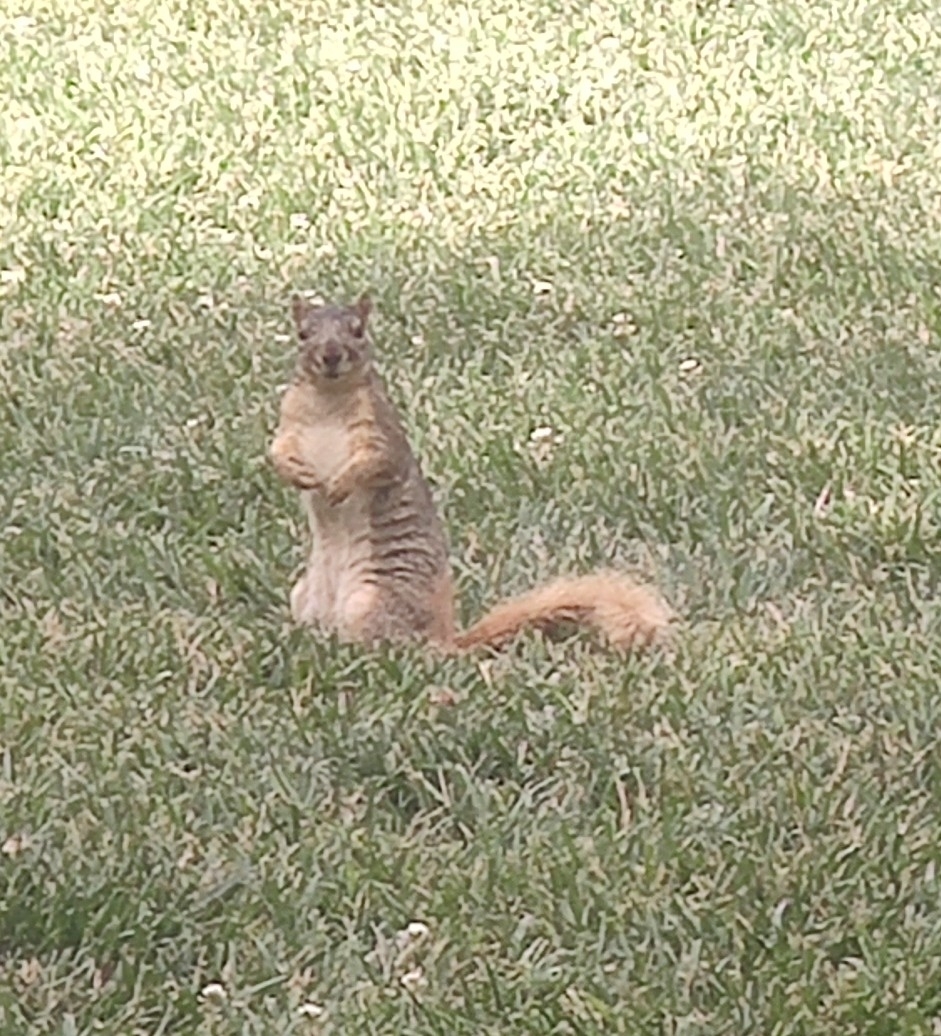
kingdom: Animalia
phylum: Chordata
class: Mammalia
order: Rodentia
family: Sciuridae
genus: Sciurus
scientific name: Sciurus niger
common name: Fox squirrel
